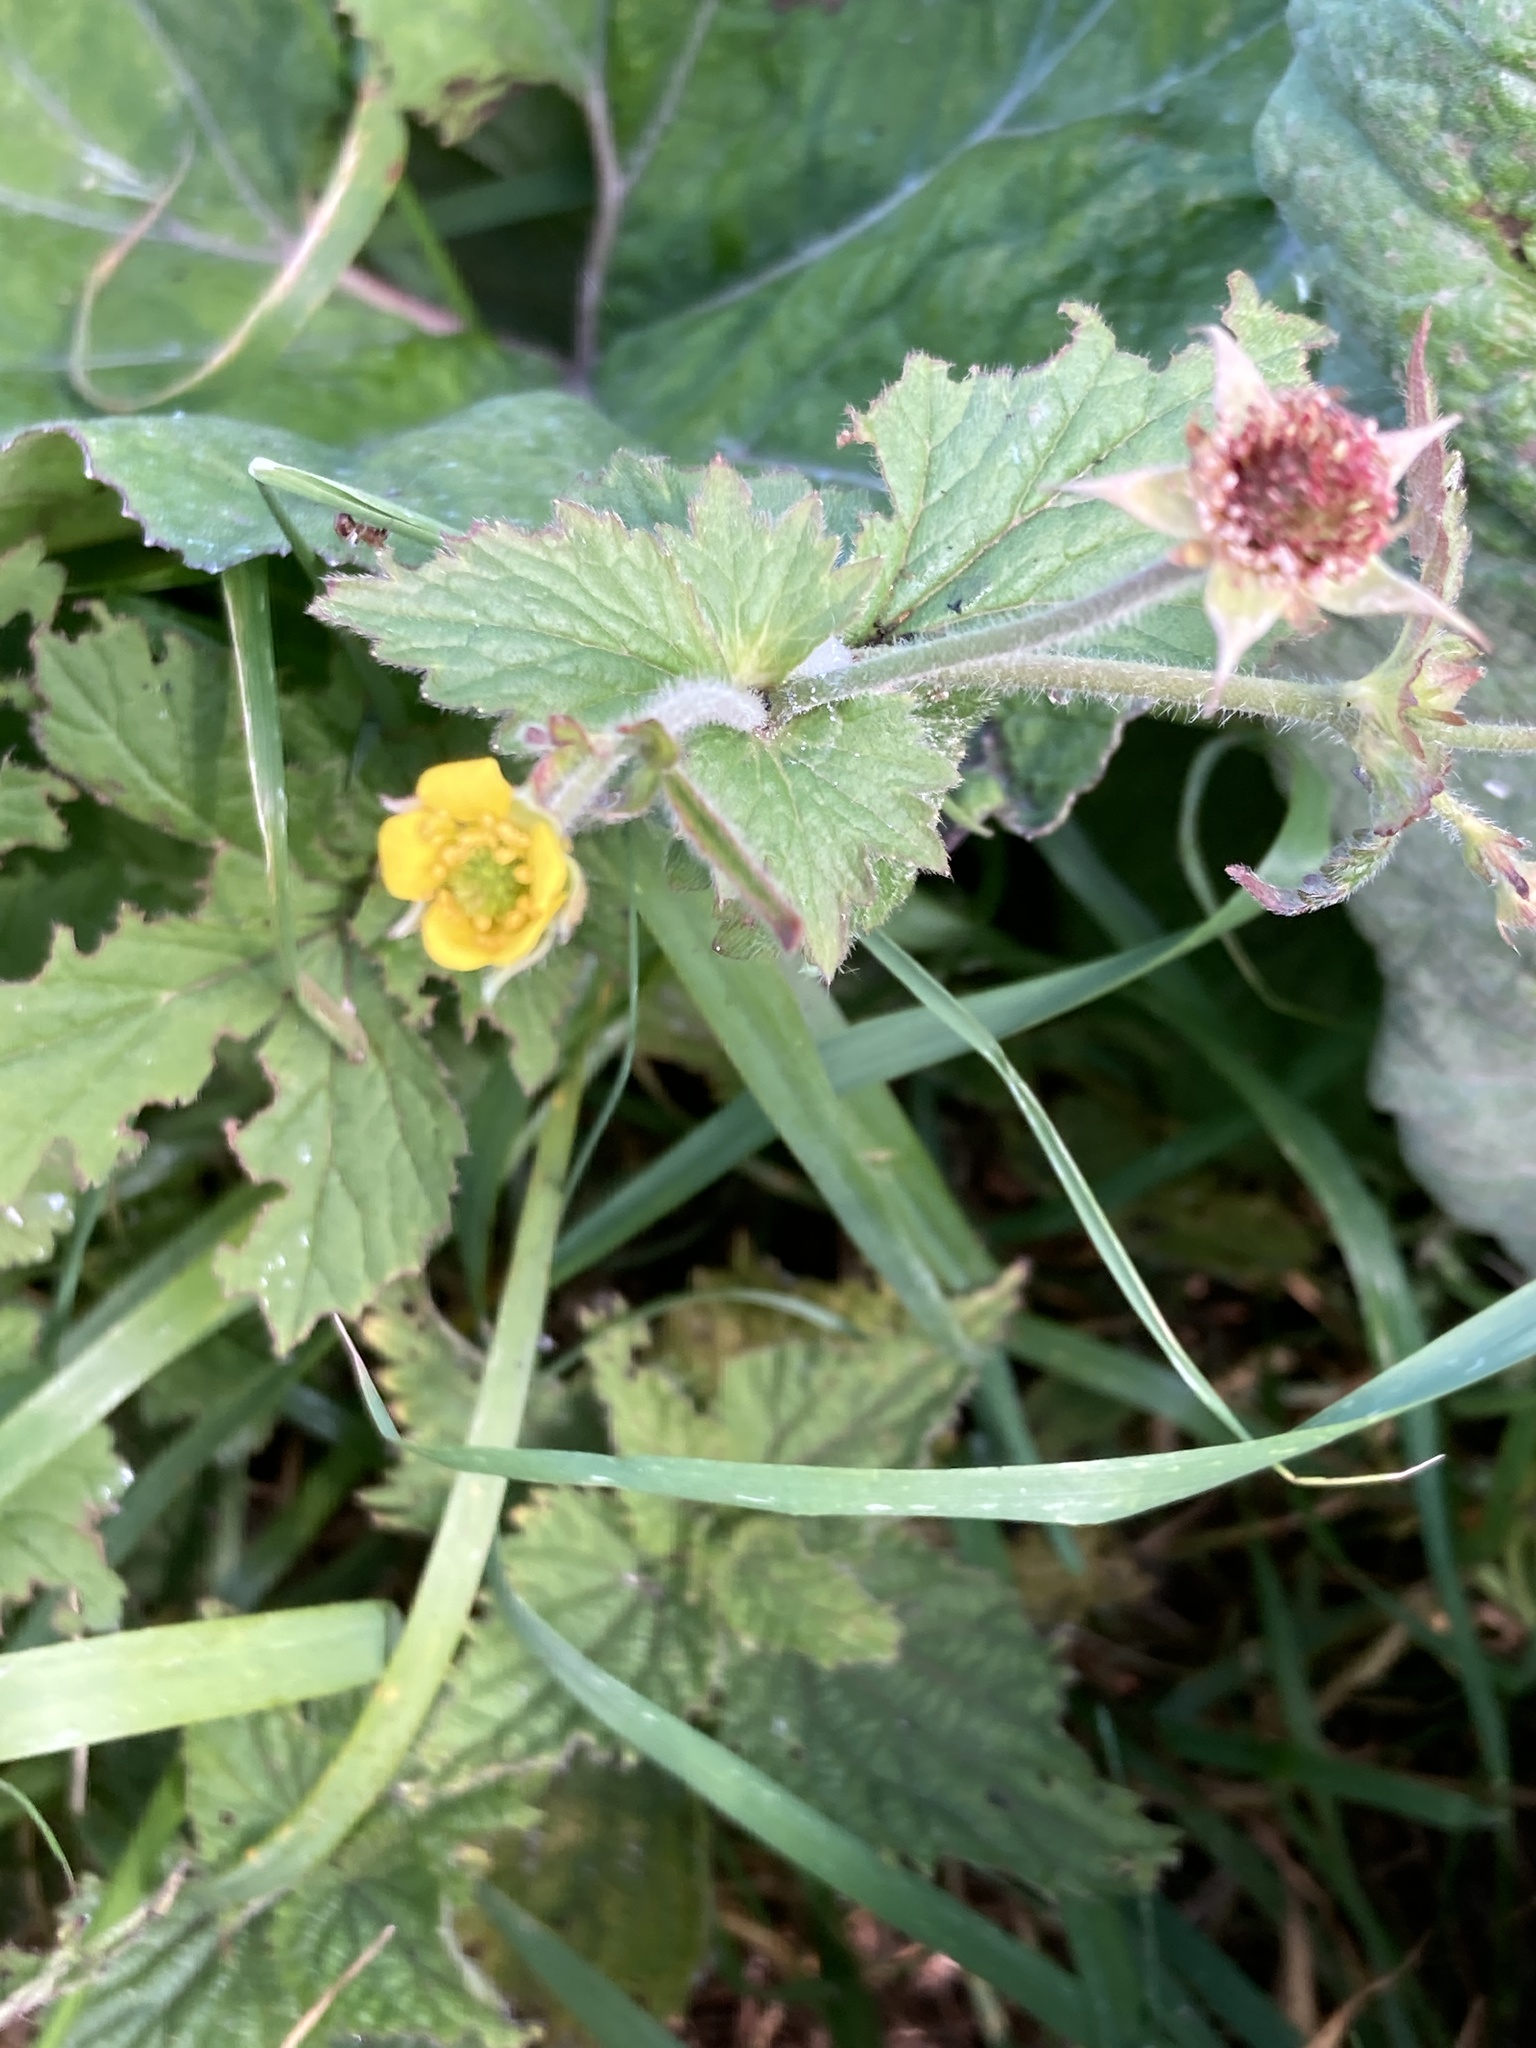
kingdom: Plantae
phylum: Tracheophyta
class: Magnoliopsida
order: Rosales
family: Rosaceae
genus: Geum
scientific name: Geum urbanum
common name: Wood avens
